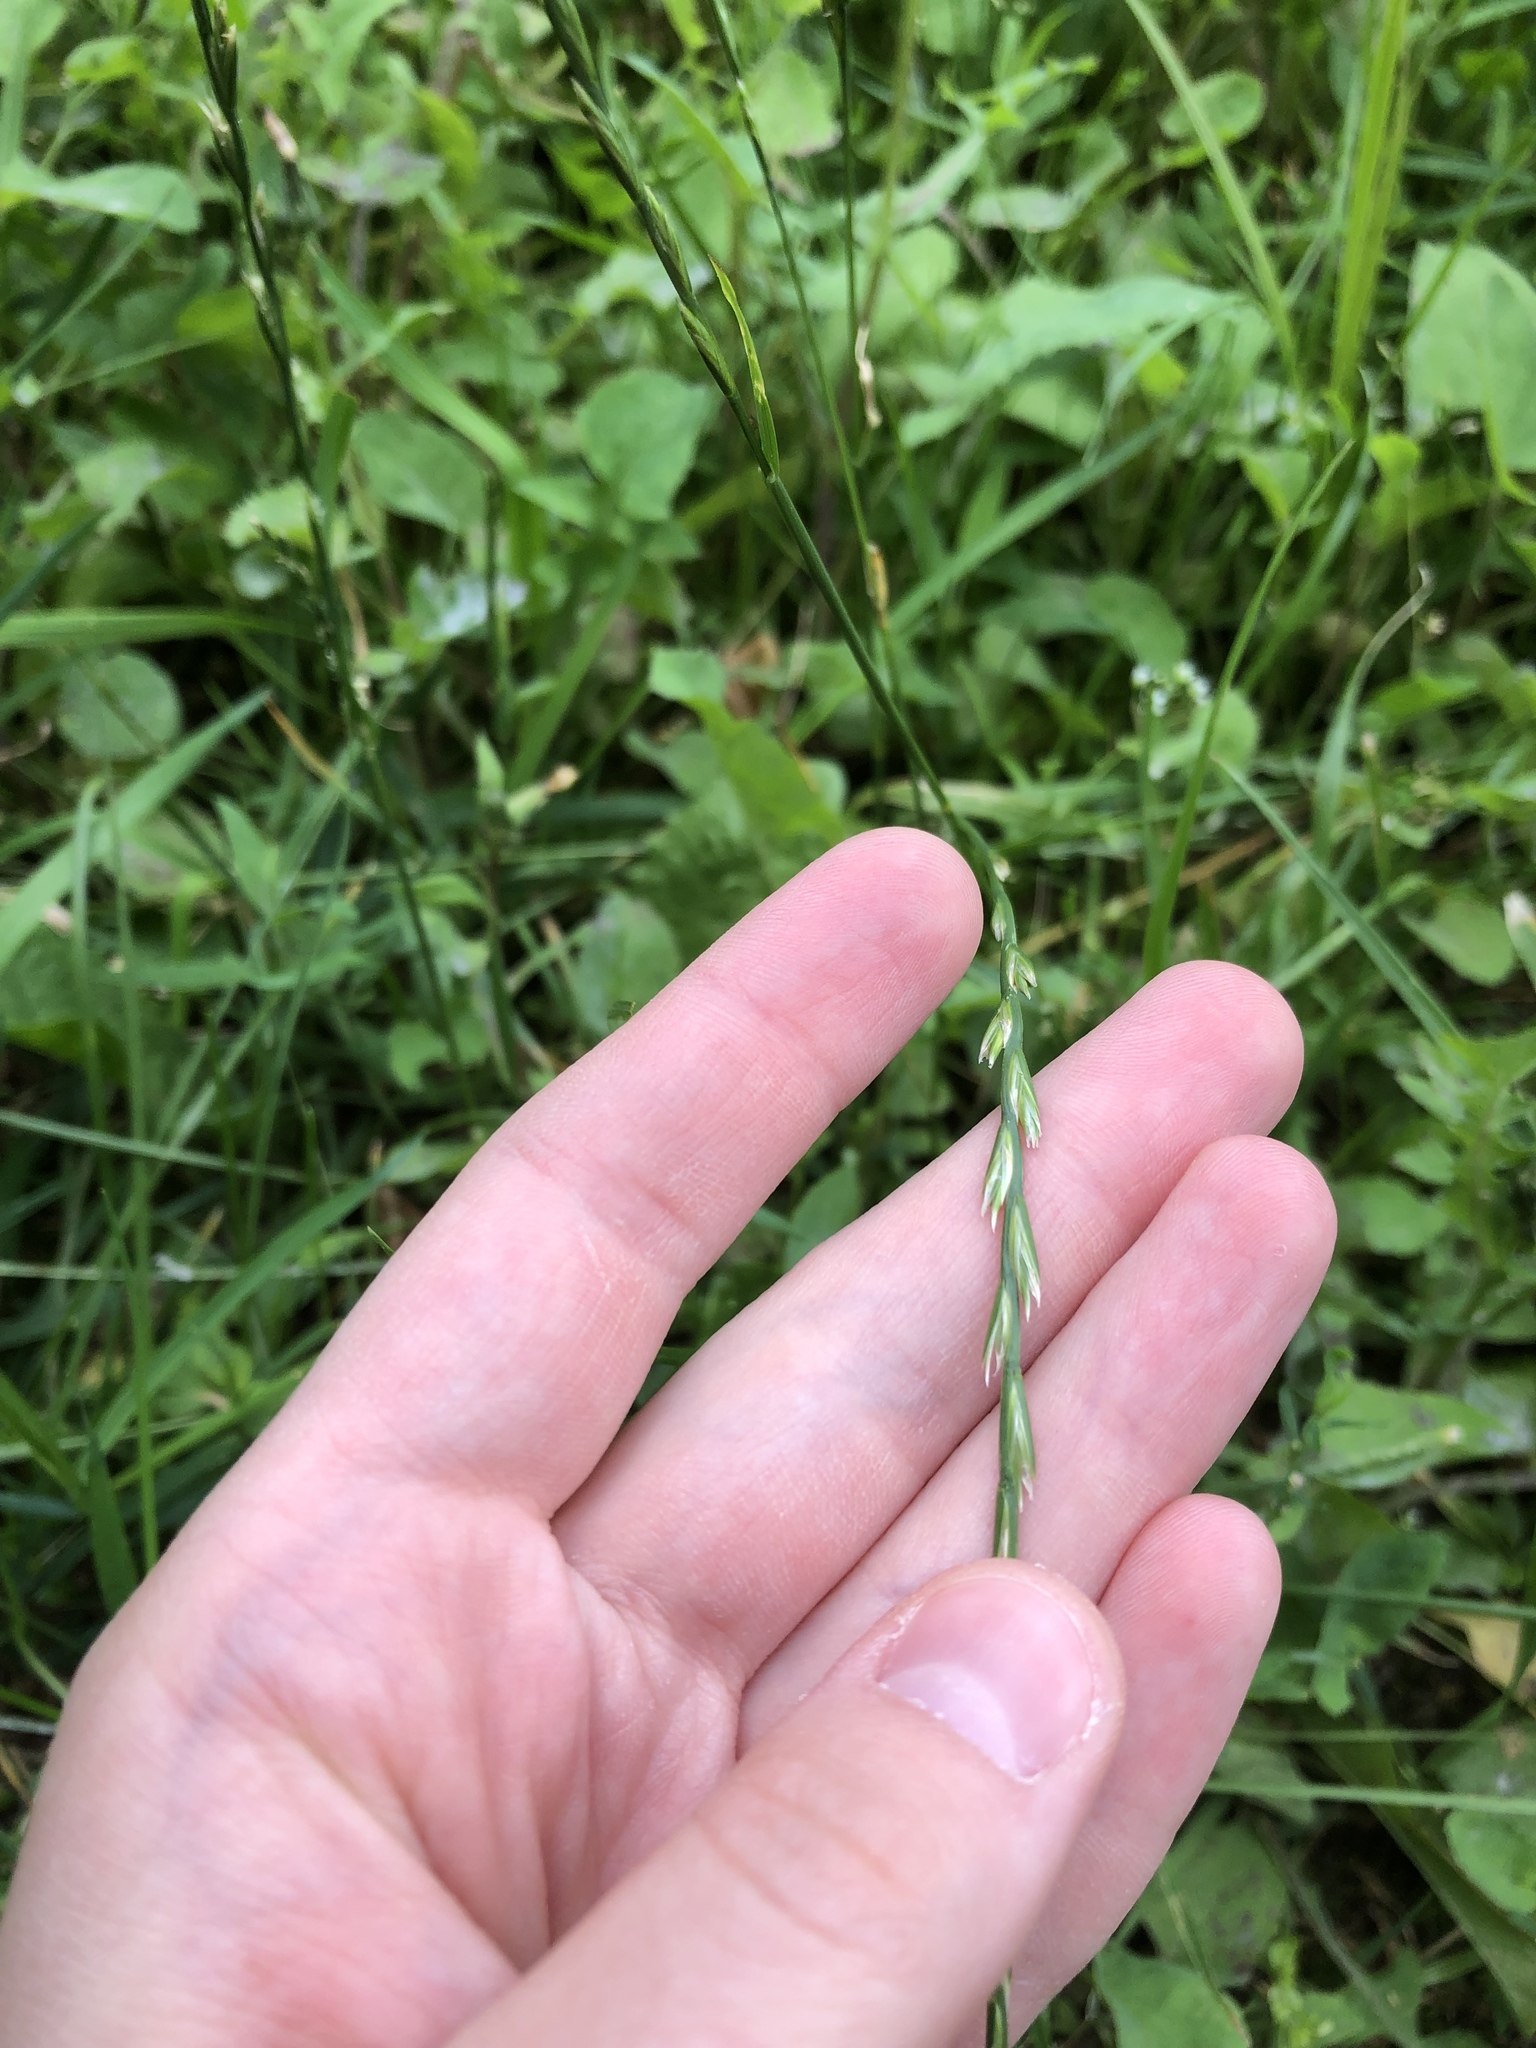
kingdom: Plantae
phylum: Tracheophyta
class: Liliopsida
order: Poales
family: Poaceae
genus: Lolium
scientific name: Lolium perenne
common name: Perennial ryegrass
